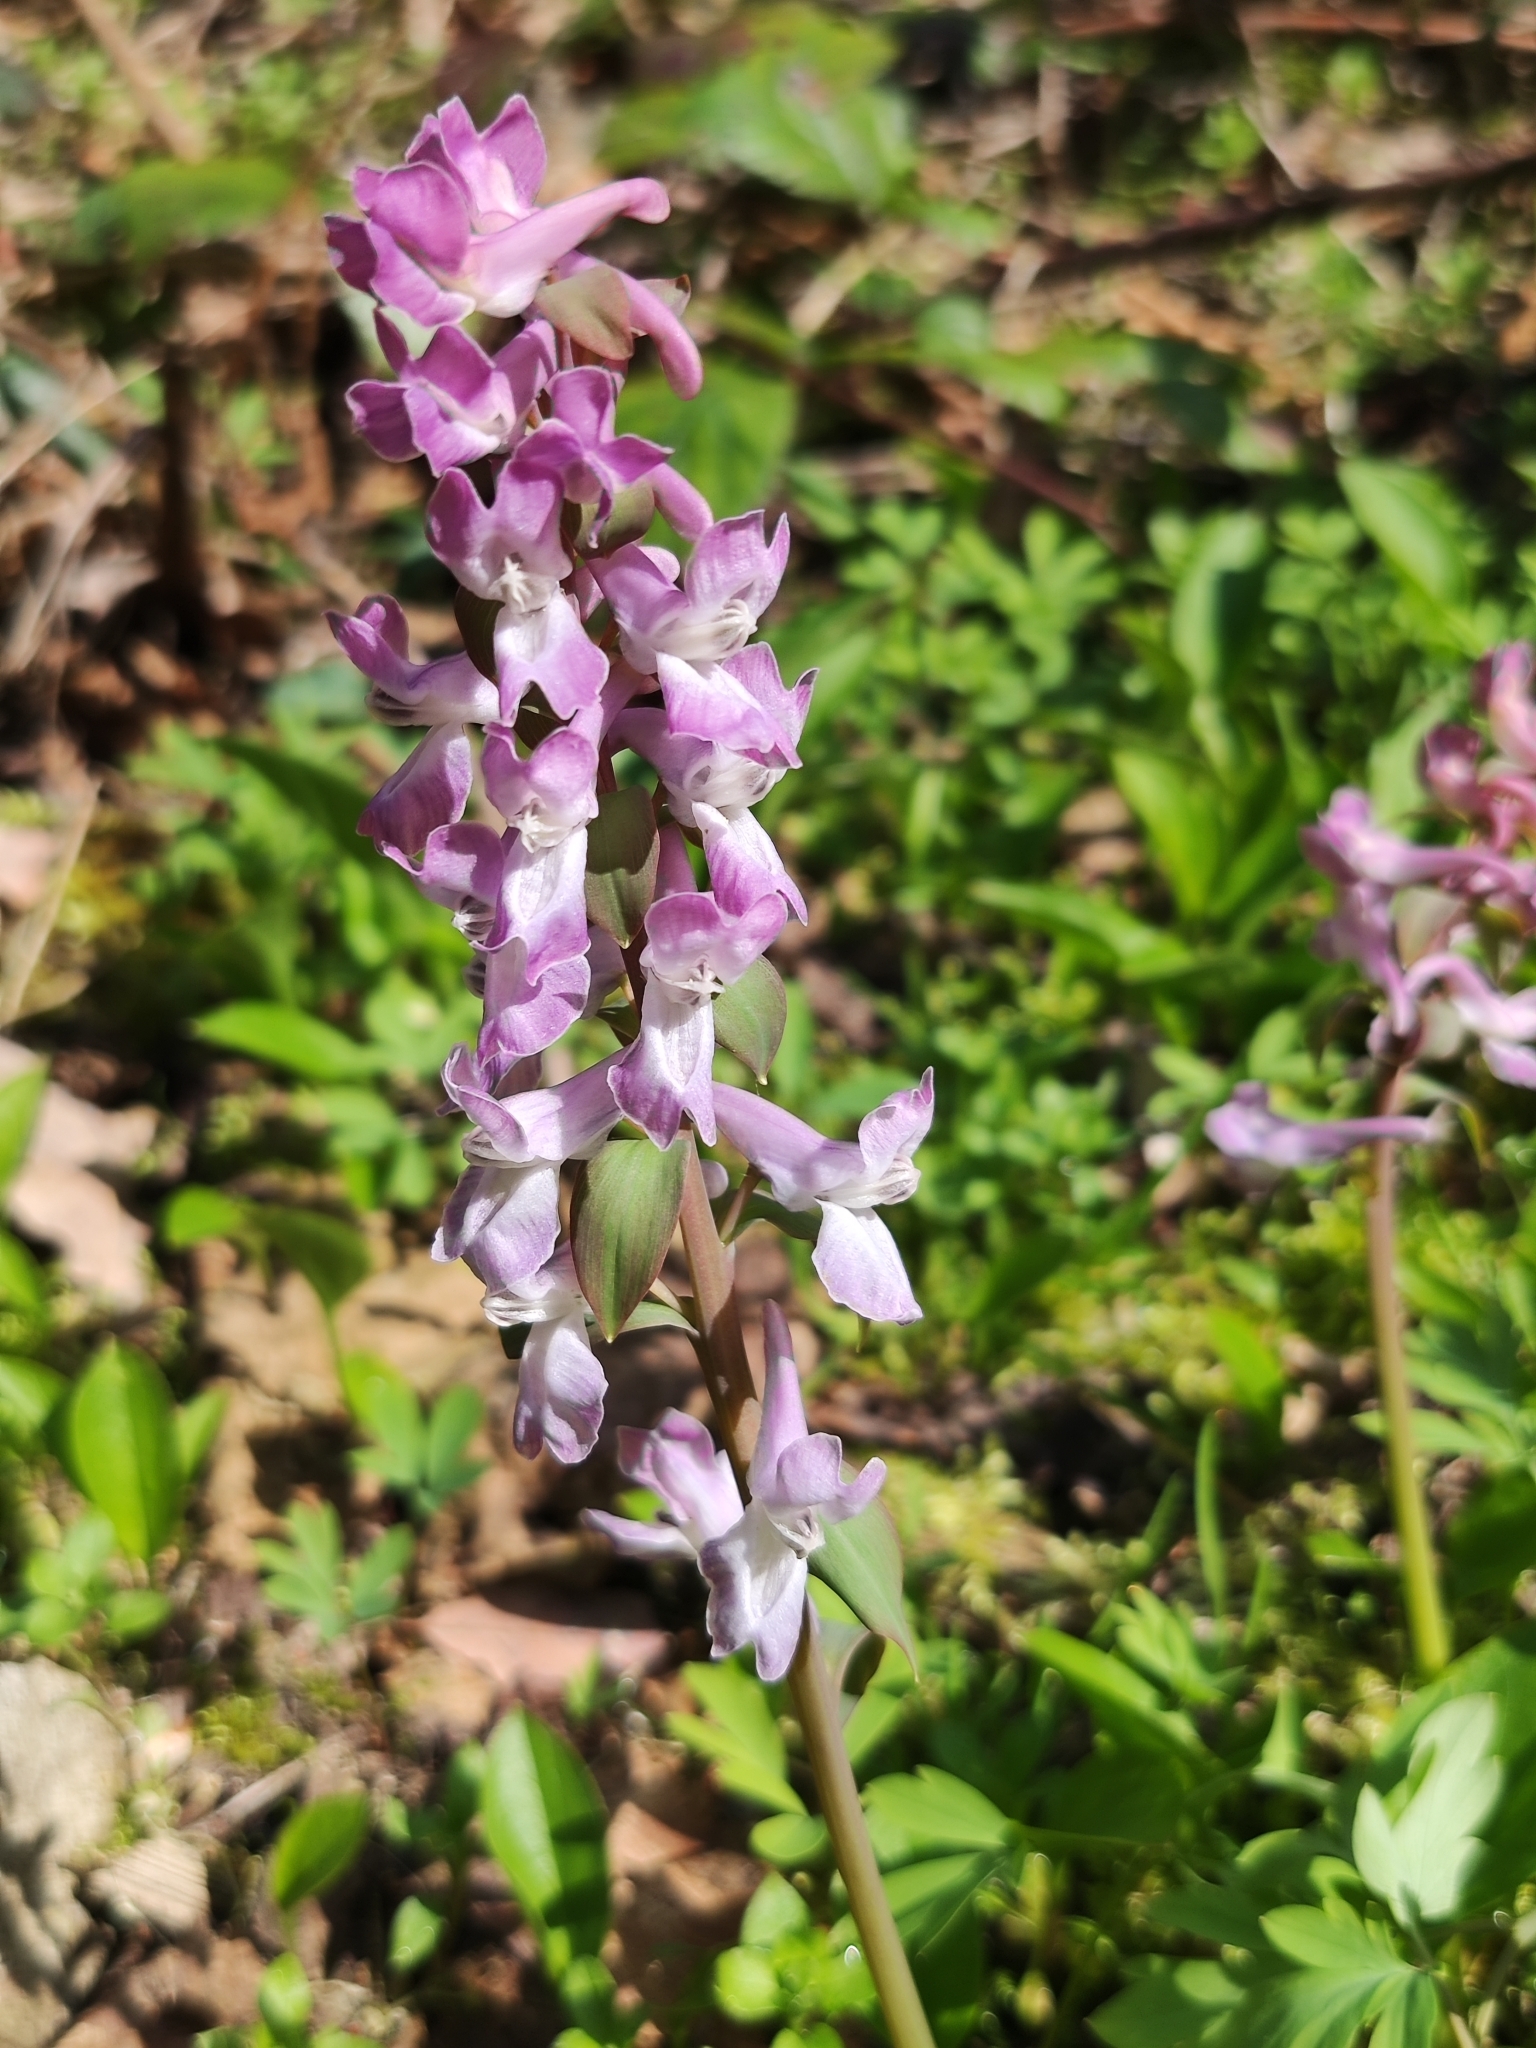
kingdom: Plantae
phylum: Tracheophyta
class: Magnoliopsida
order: Ranunculales
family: Papaveraceae
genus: Corydalis
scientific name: Corydalis cava
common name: Hollowroot
